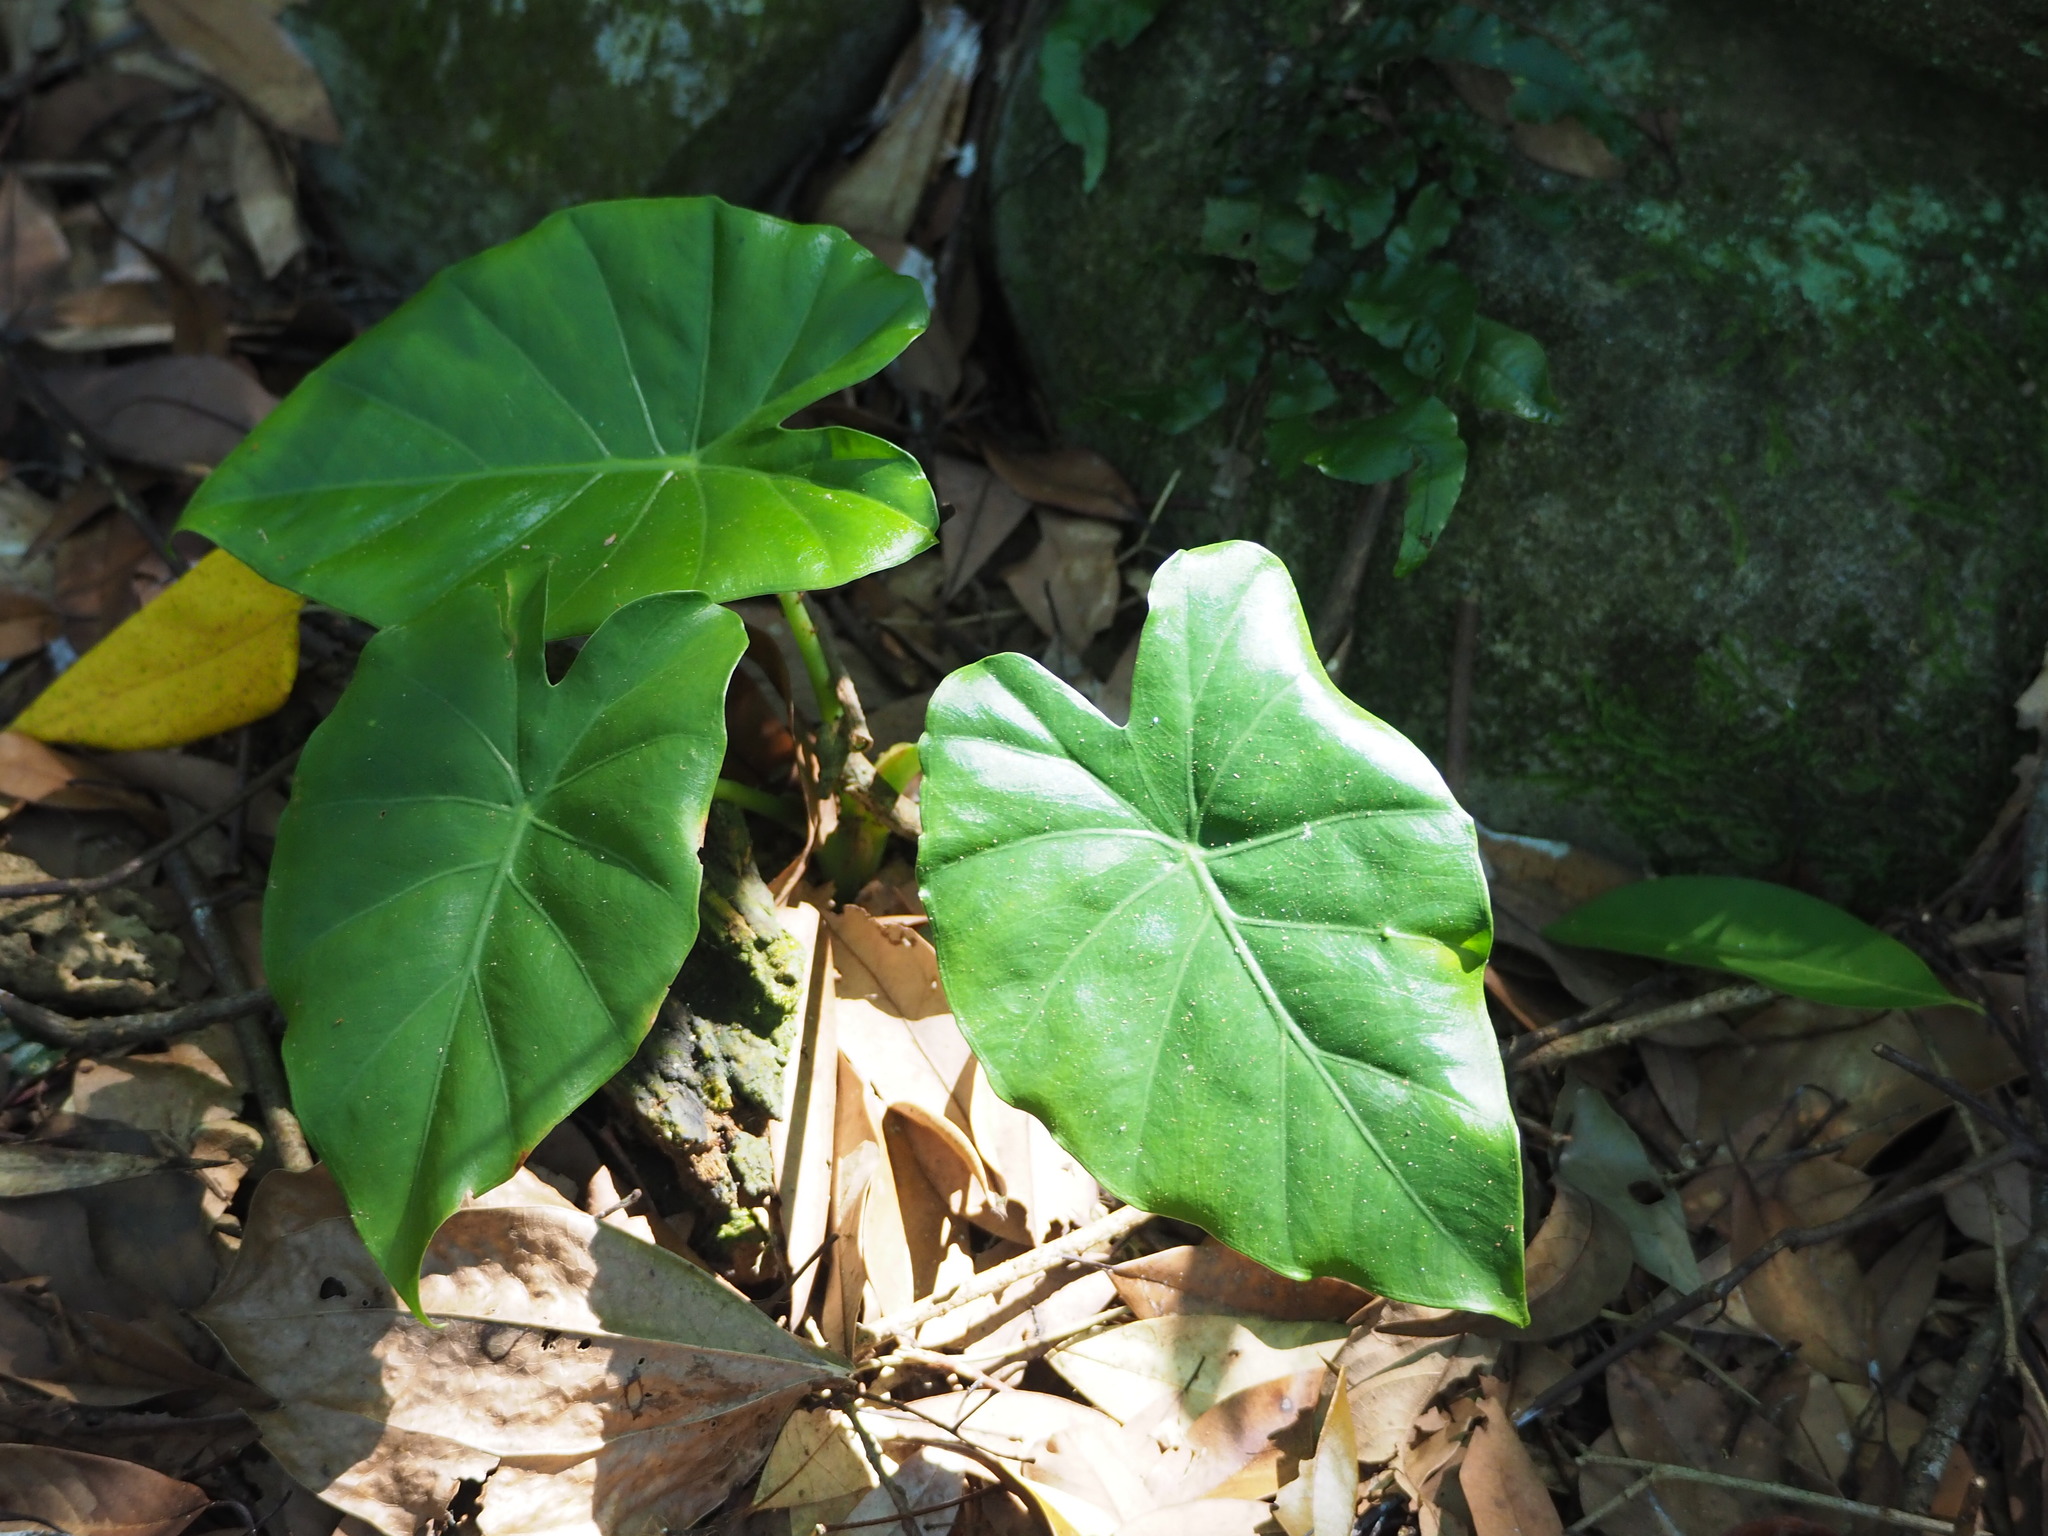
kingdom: Plantae
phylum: Tracheophyta
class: Liliopsida
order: Alismatales
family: Araceae
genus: Alocasia
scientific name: Alocasia odora
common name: Asian taro
